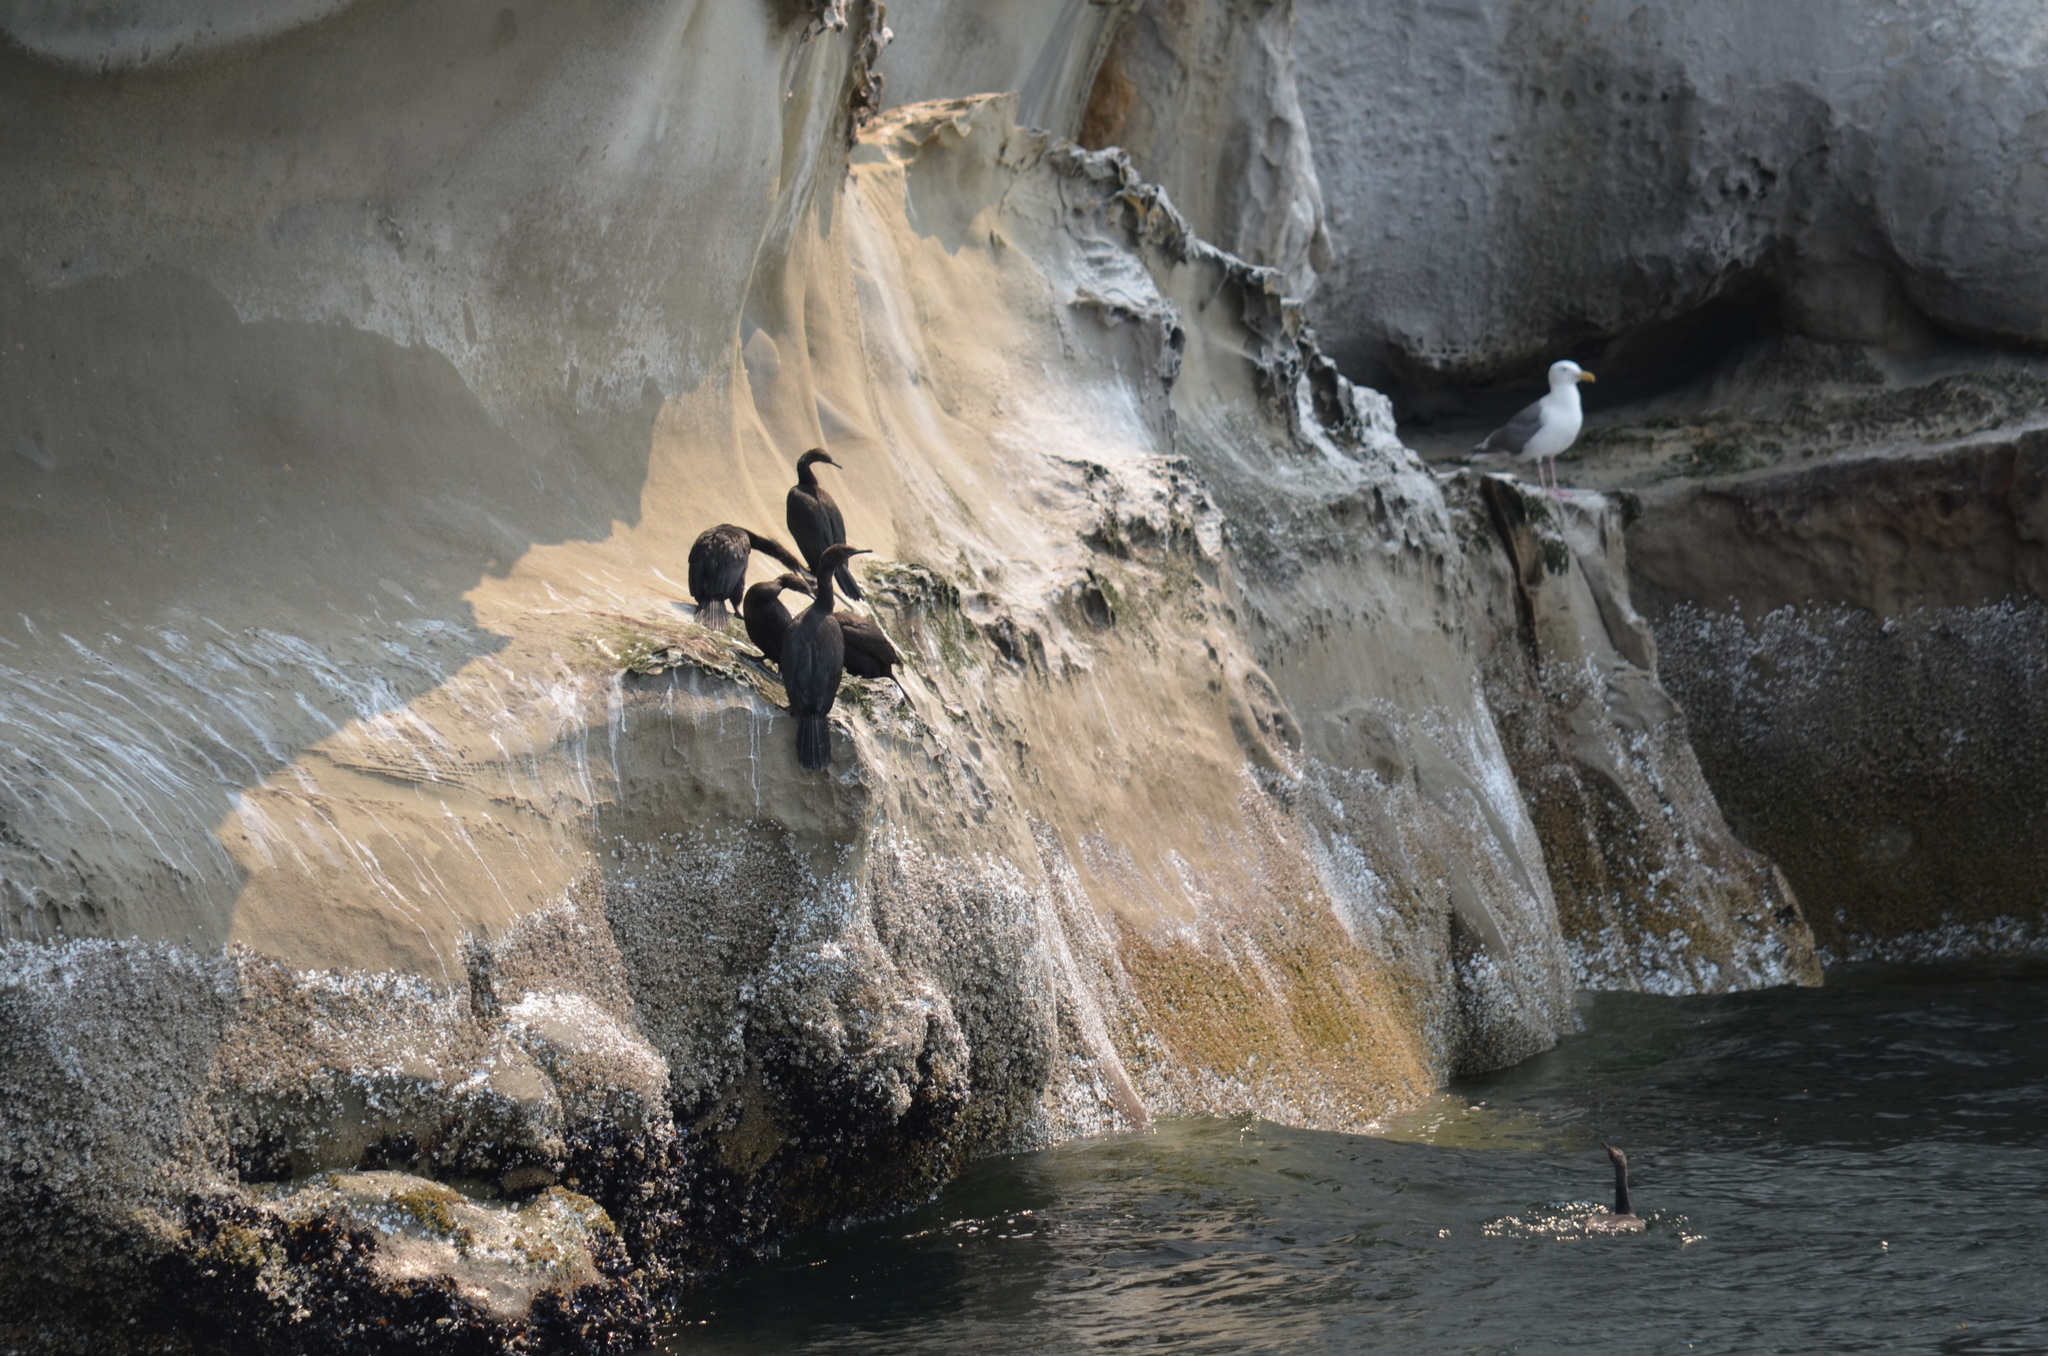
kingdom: Animalia
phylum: Chordata
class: Aves
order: Suliformes
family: Phalacrocoracidae
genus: Phalacrocorax
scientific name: Phalacrocorax pelagicus
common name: Pelagic cormorant
